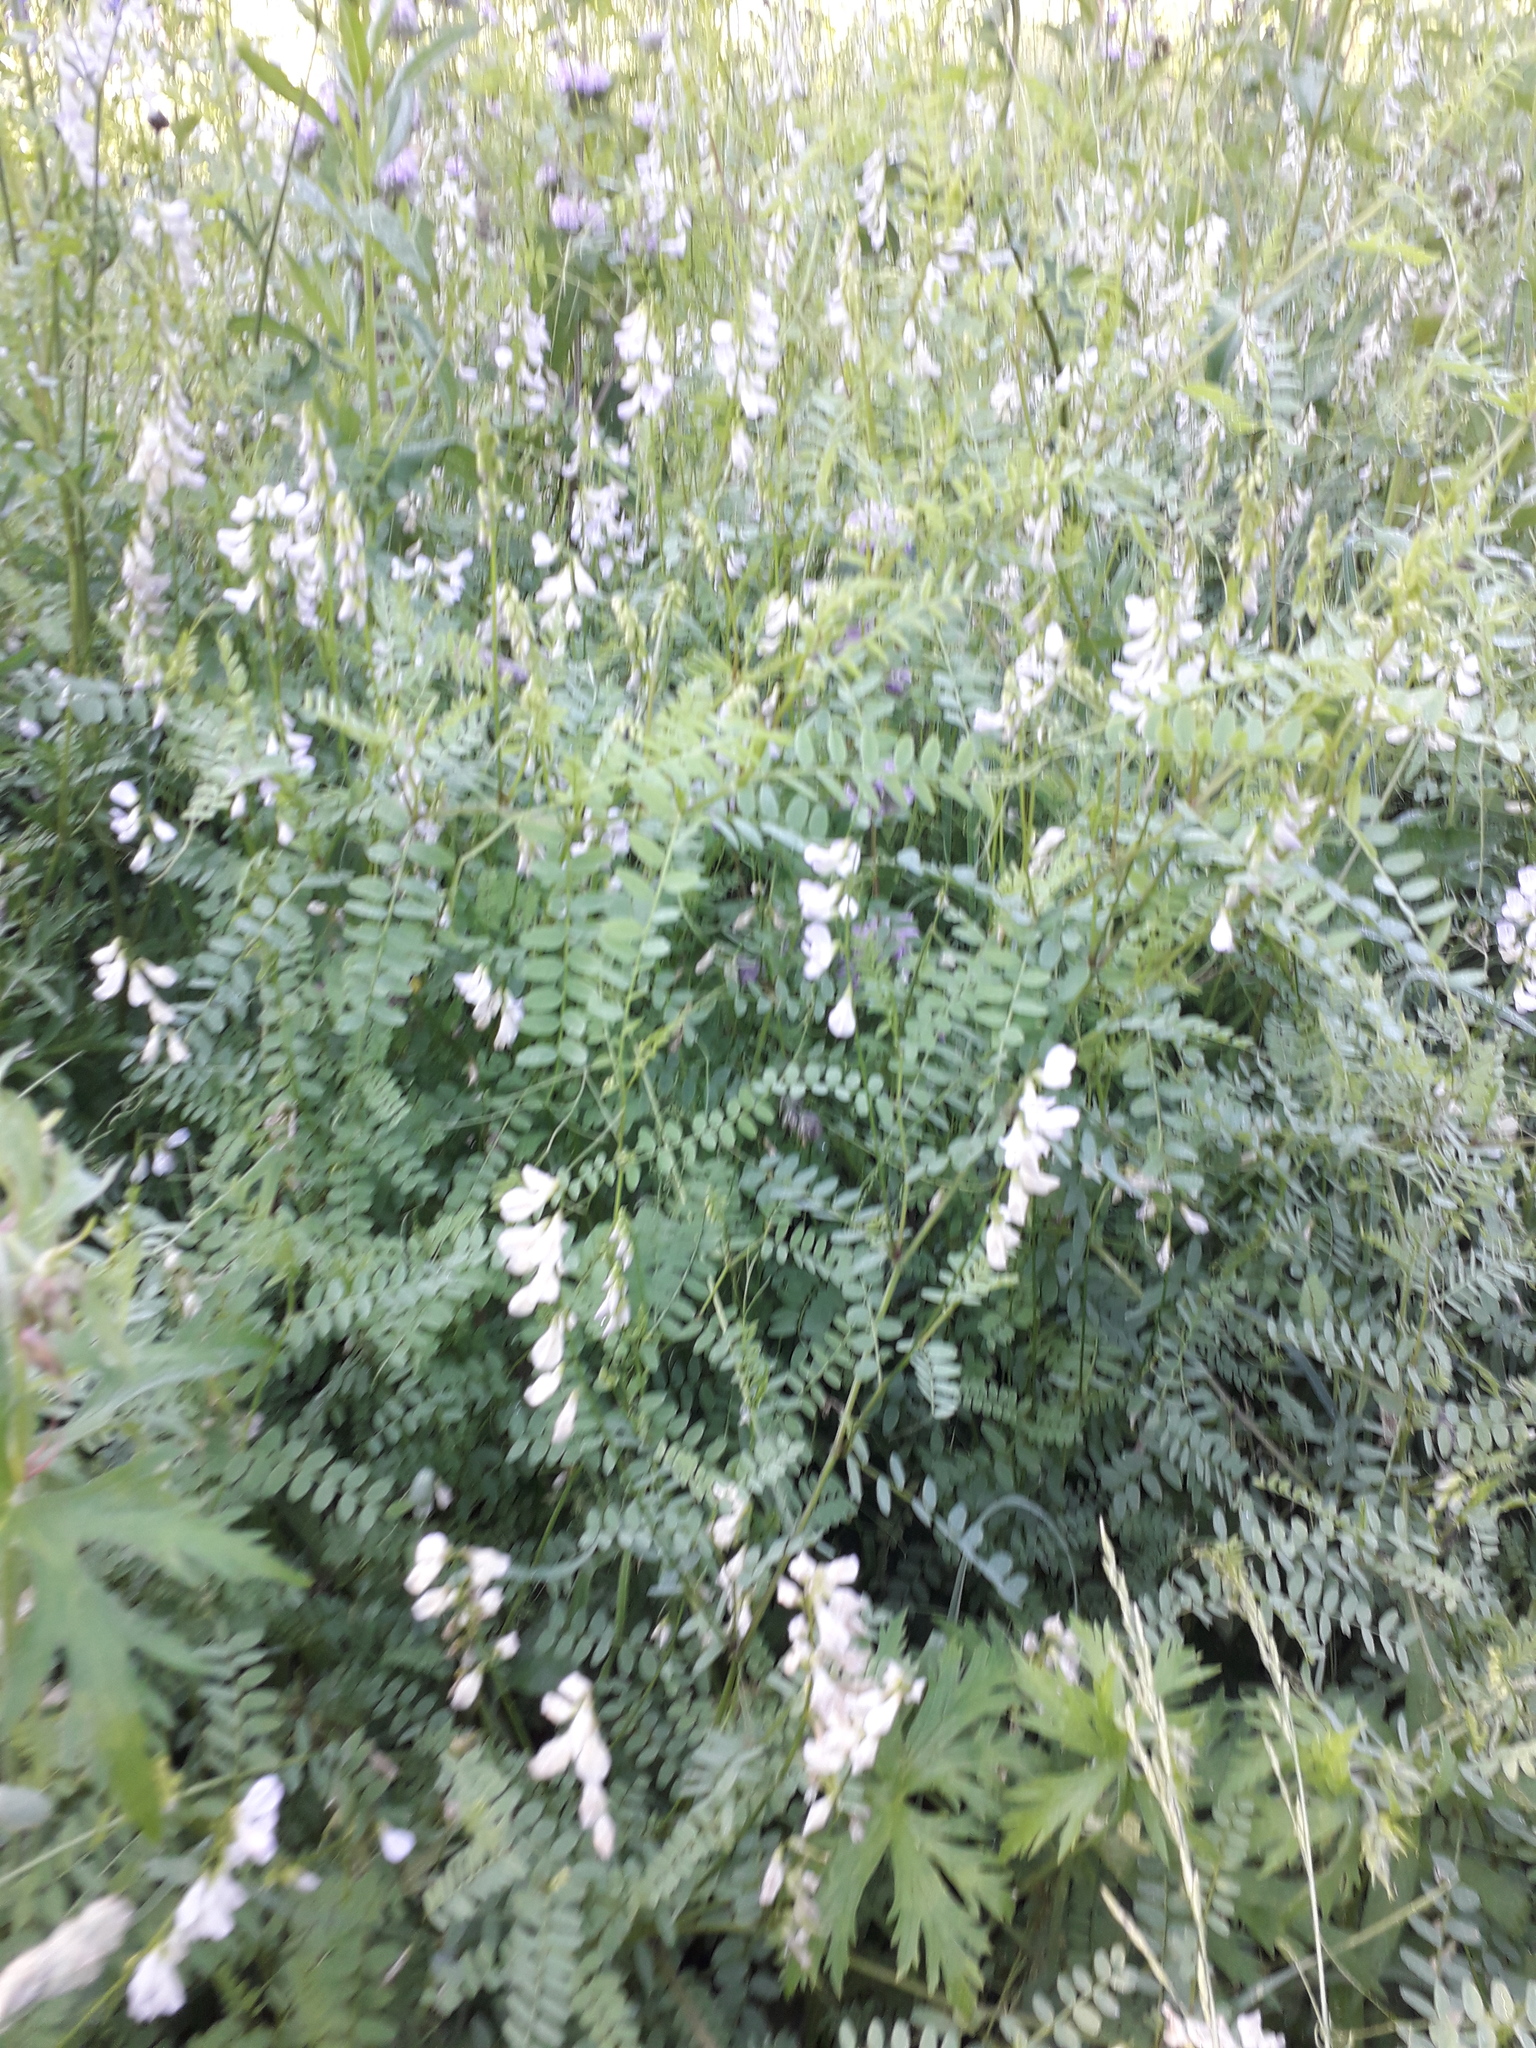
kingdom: Plantae
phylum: Tracheophyta
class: Magnoliopsida
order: Fabales
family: Fabaceae
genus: Vicia
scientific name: Vicia sylvatica
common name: Wood vetch
